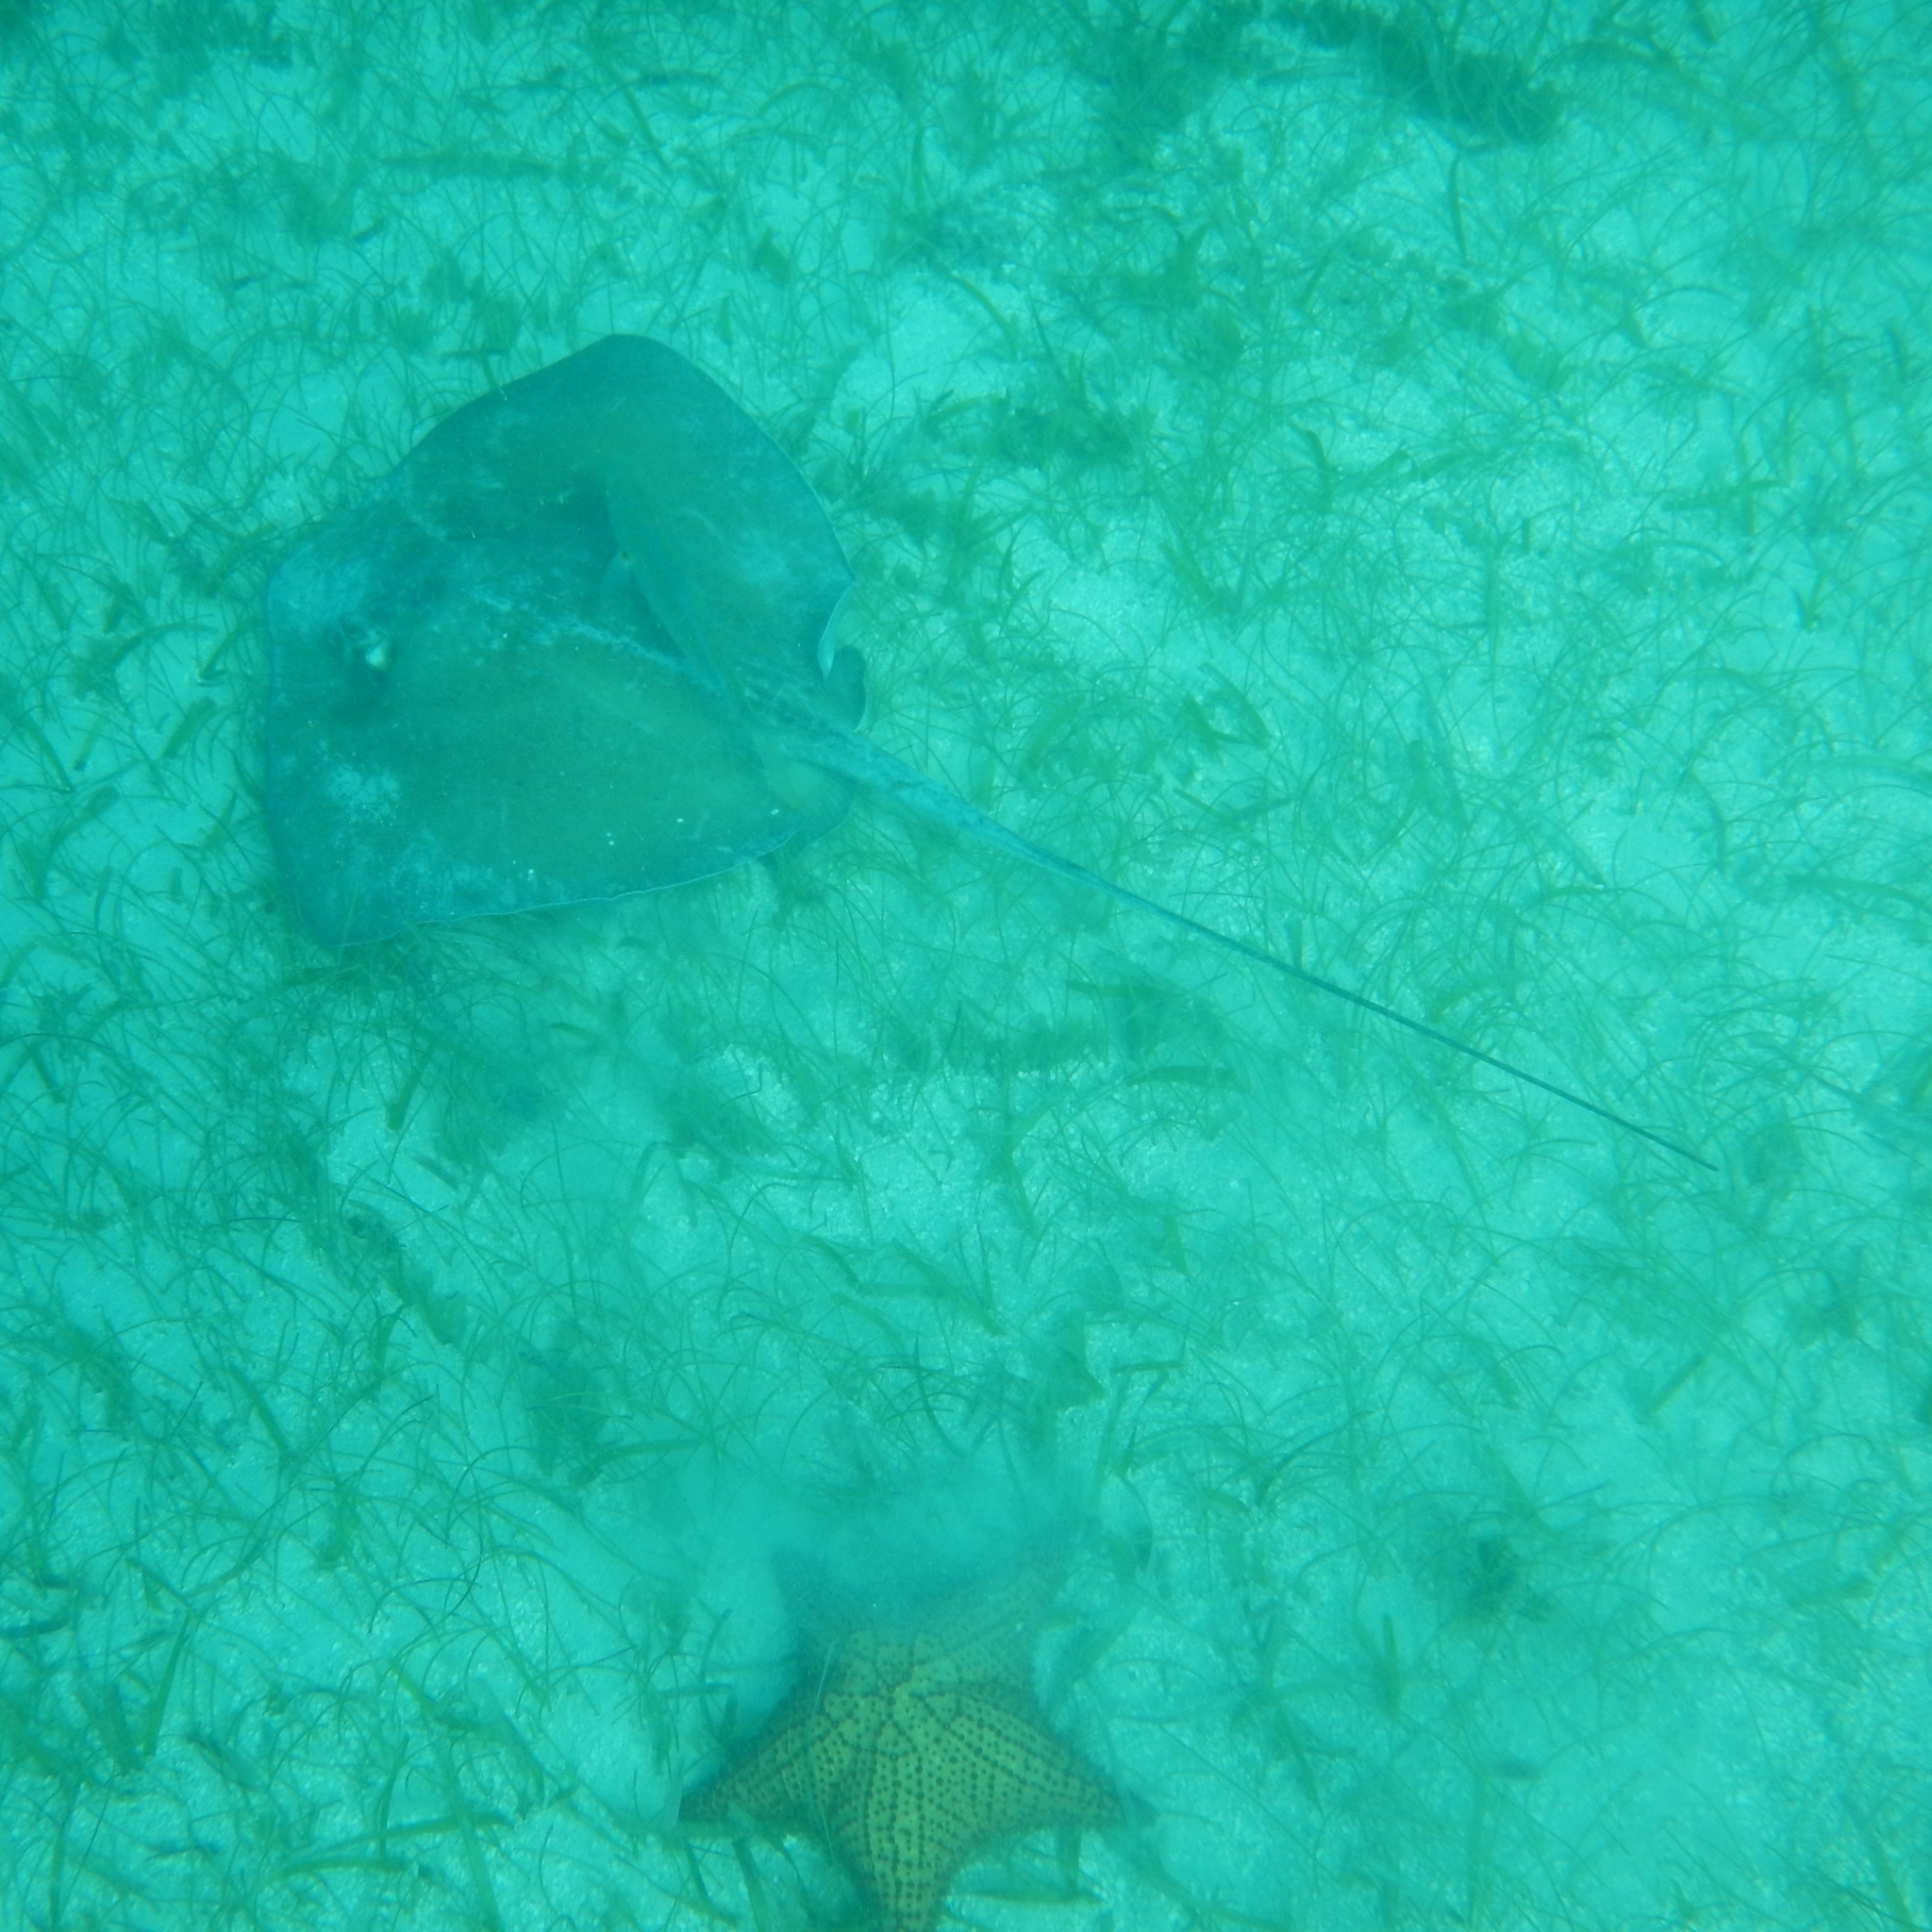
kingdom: Animalia
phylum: Chordata
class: Elasmobranchii
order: Myliobatiformes
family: Dasyatidae
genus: Hypanus
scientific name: Hypanus americanus
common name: Southern stingray
